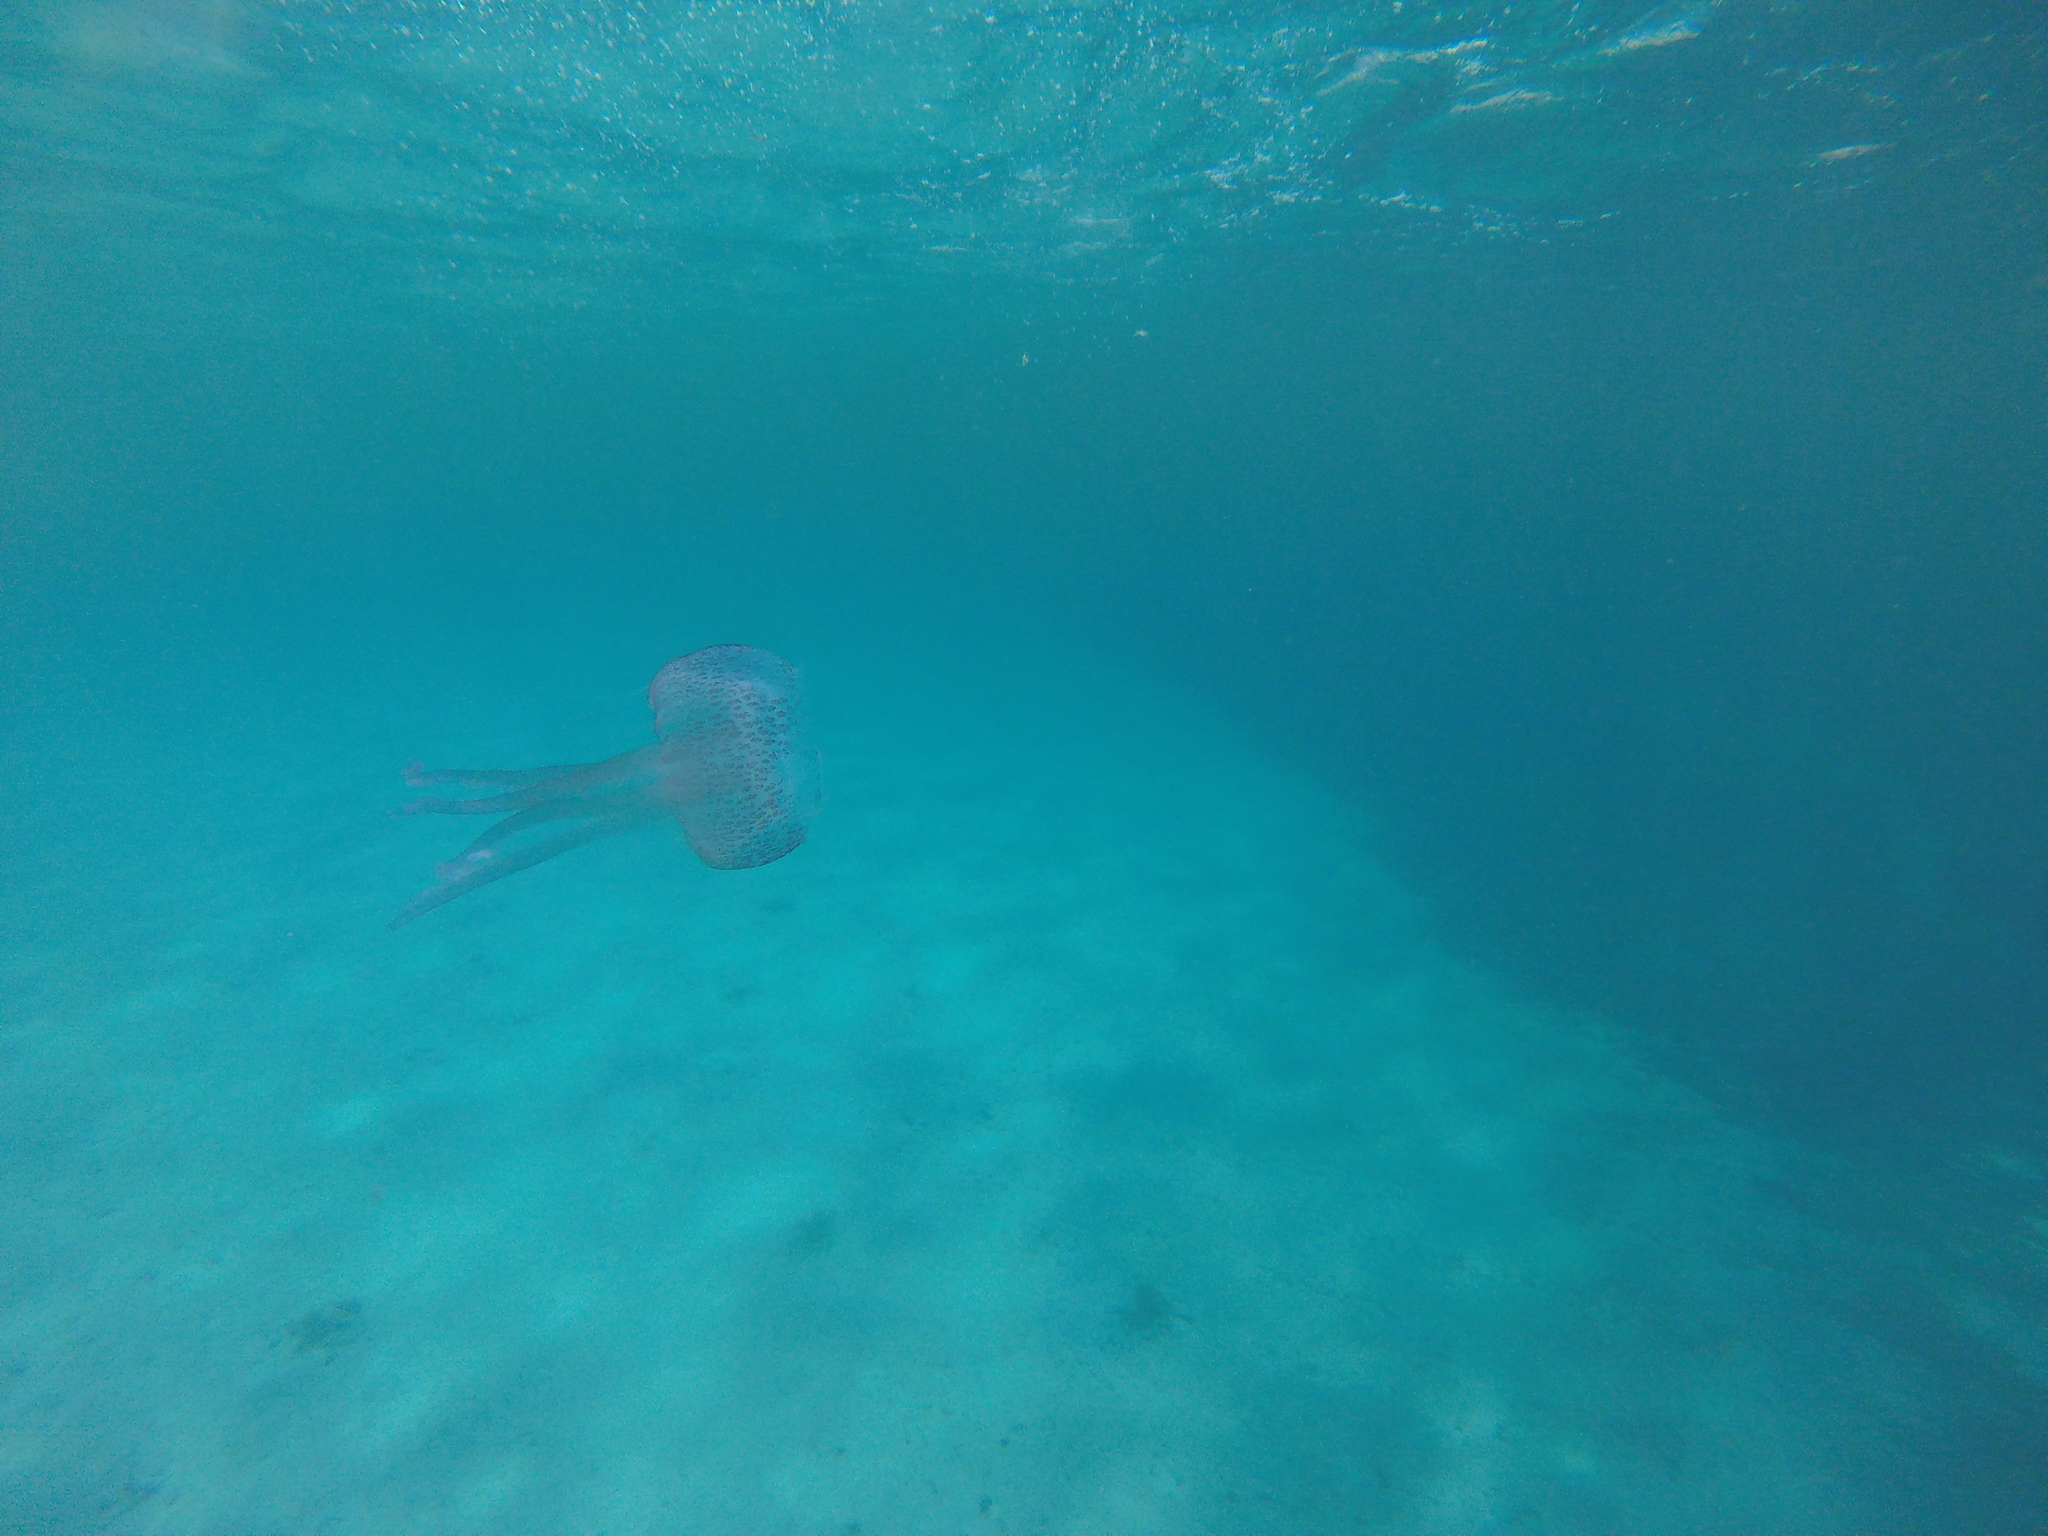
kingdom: Animalia
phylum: Cnidaria
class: Scyphozoa
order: Semaeostomeae
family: Pelagiidae
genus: Pelagia
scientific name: Pelagia noctiluca
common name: Mauve stinger
